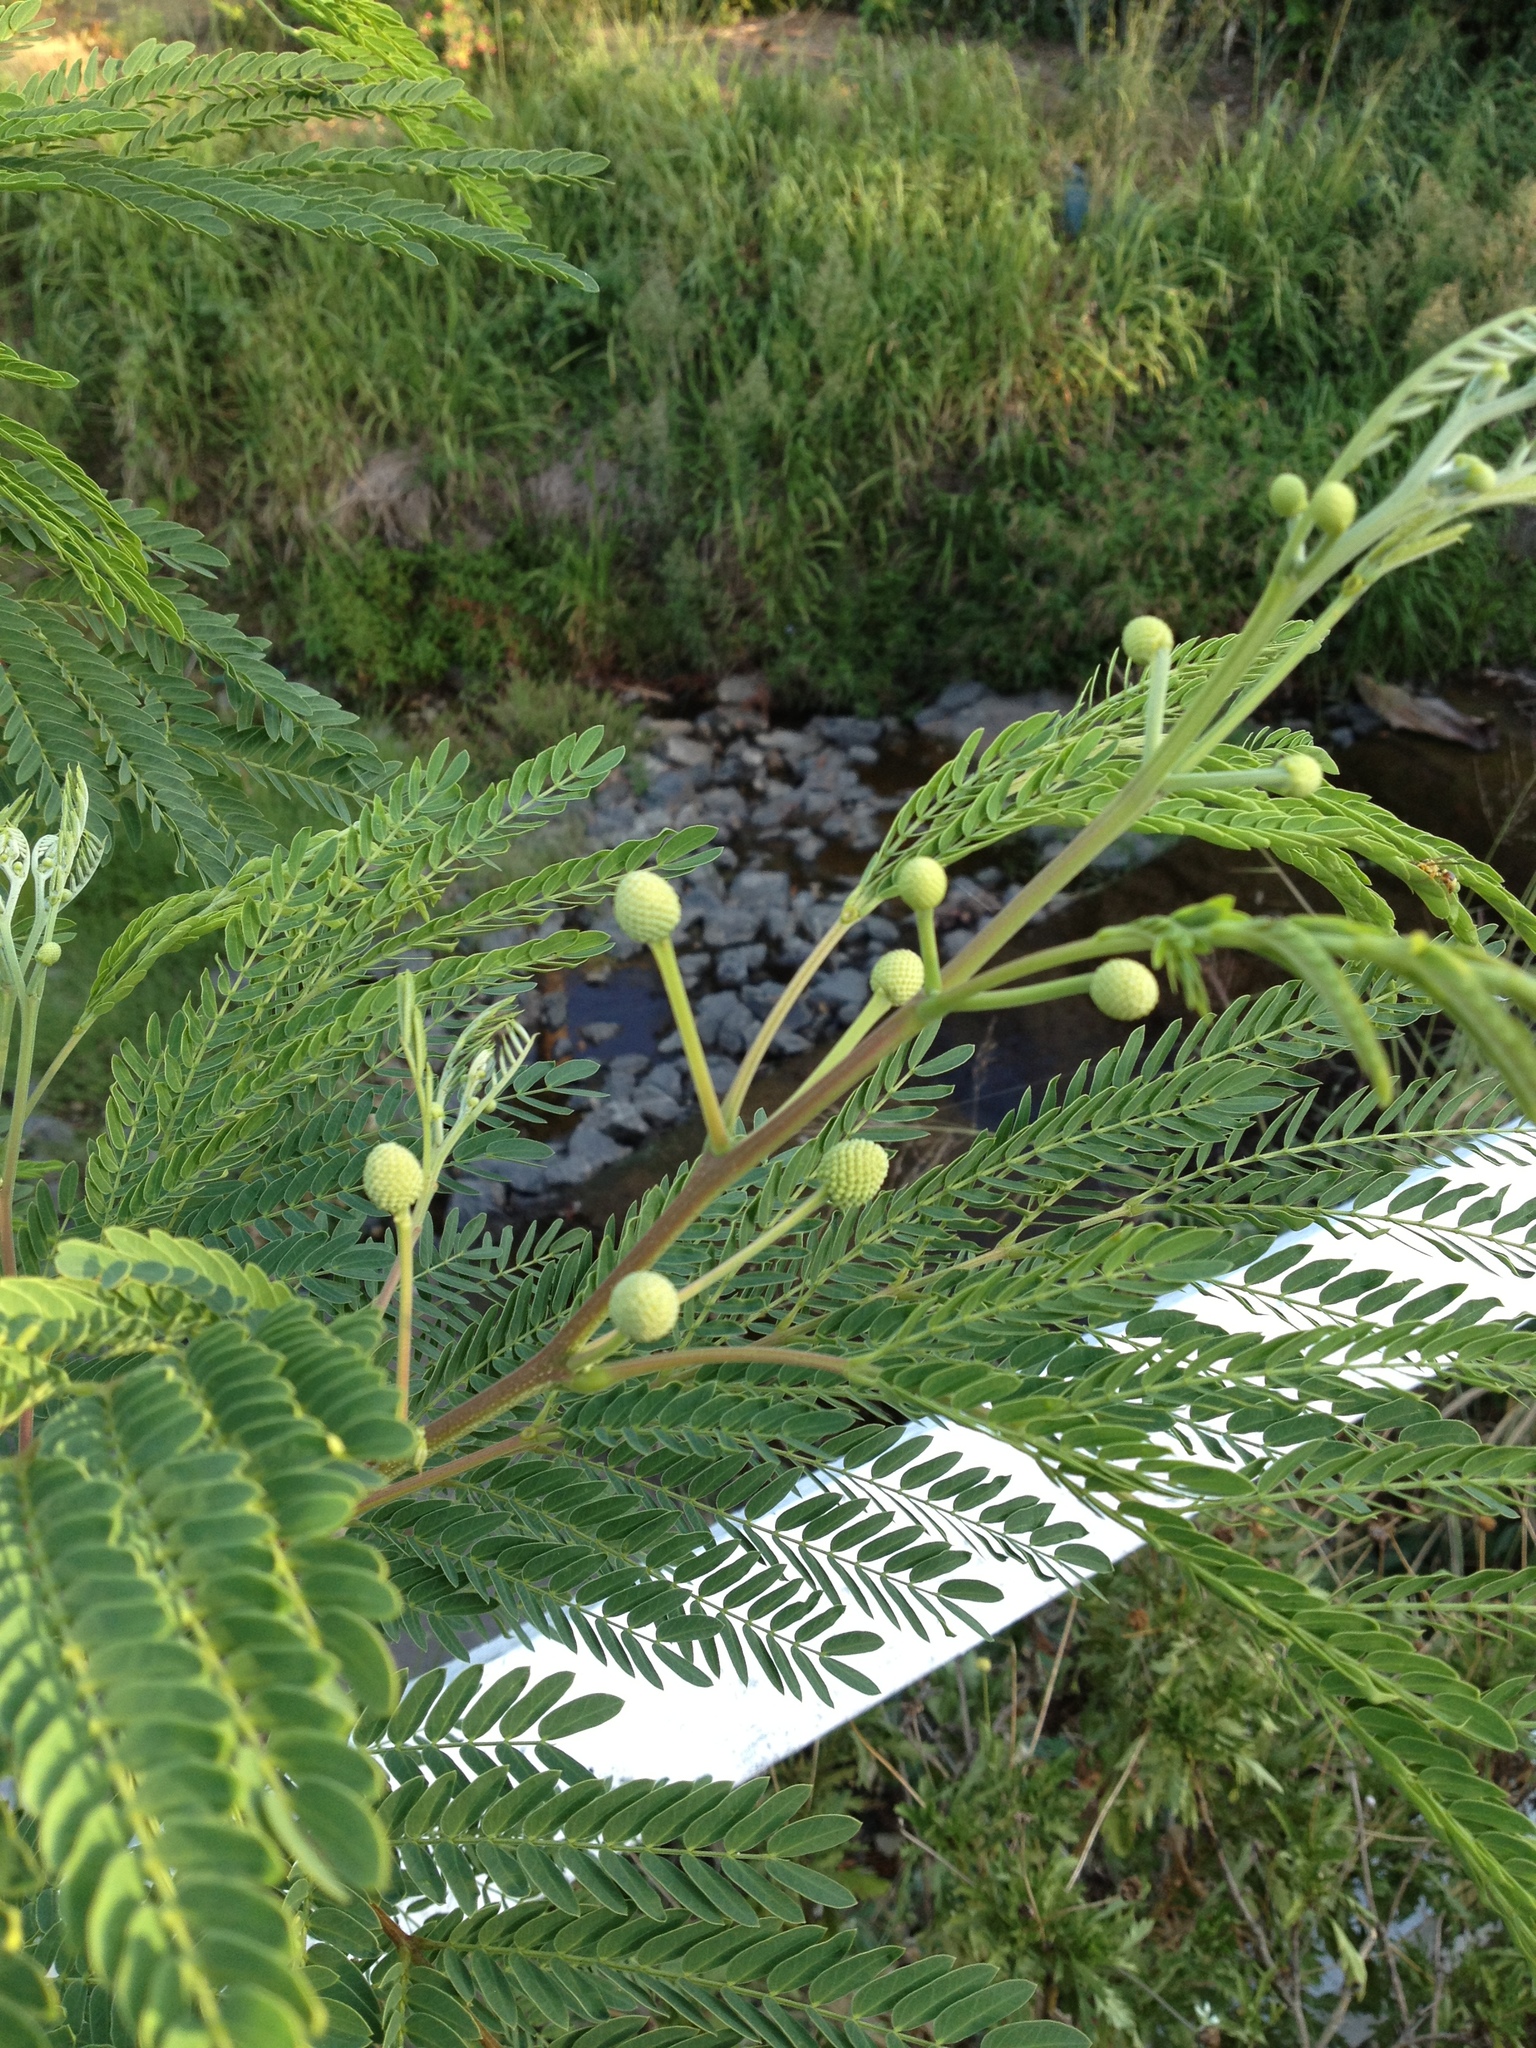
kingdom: Plantae
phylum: Tracheophyta
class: Magnoliopsida
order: Fabales
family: Fabaceae
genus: Leucaena
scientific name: Leucaena leucocephala
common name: White leadtree
